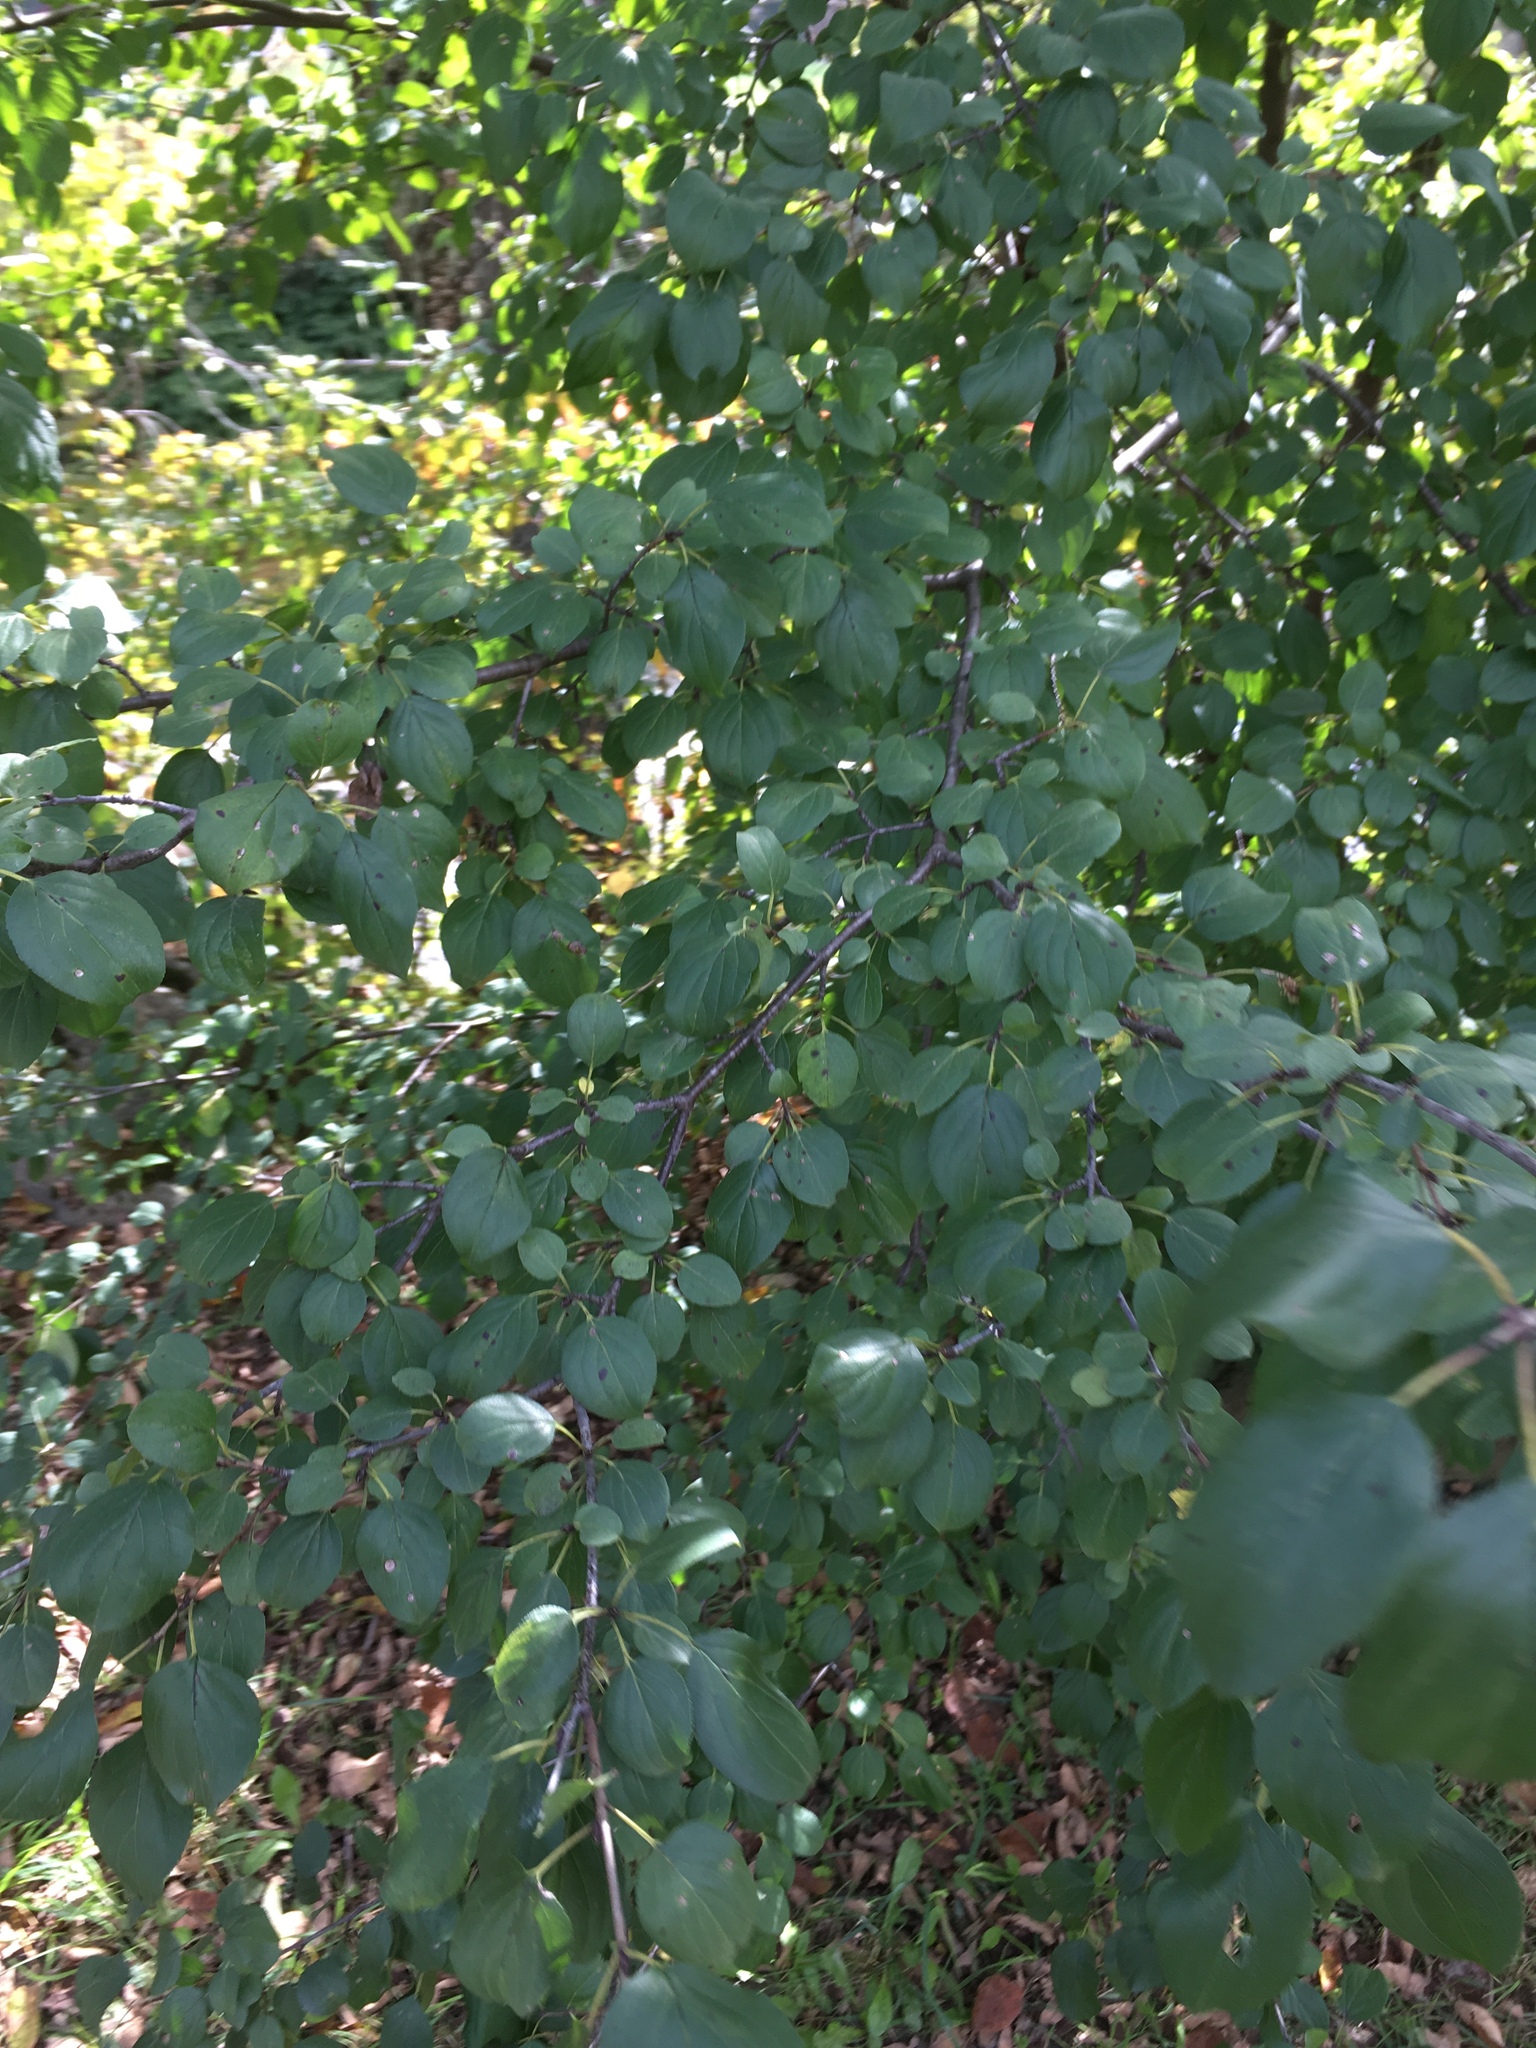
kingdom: Plantae
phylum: Tracheophyta
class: Magnoliopsida
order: Rosales
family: Rhamnaceae
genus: Rhamnus
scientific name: Rhamnus cathartica
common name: Common buckthorn
